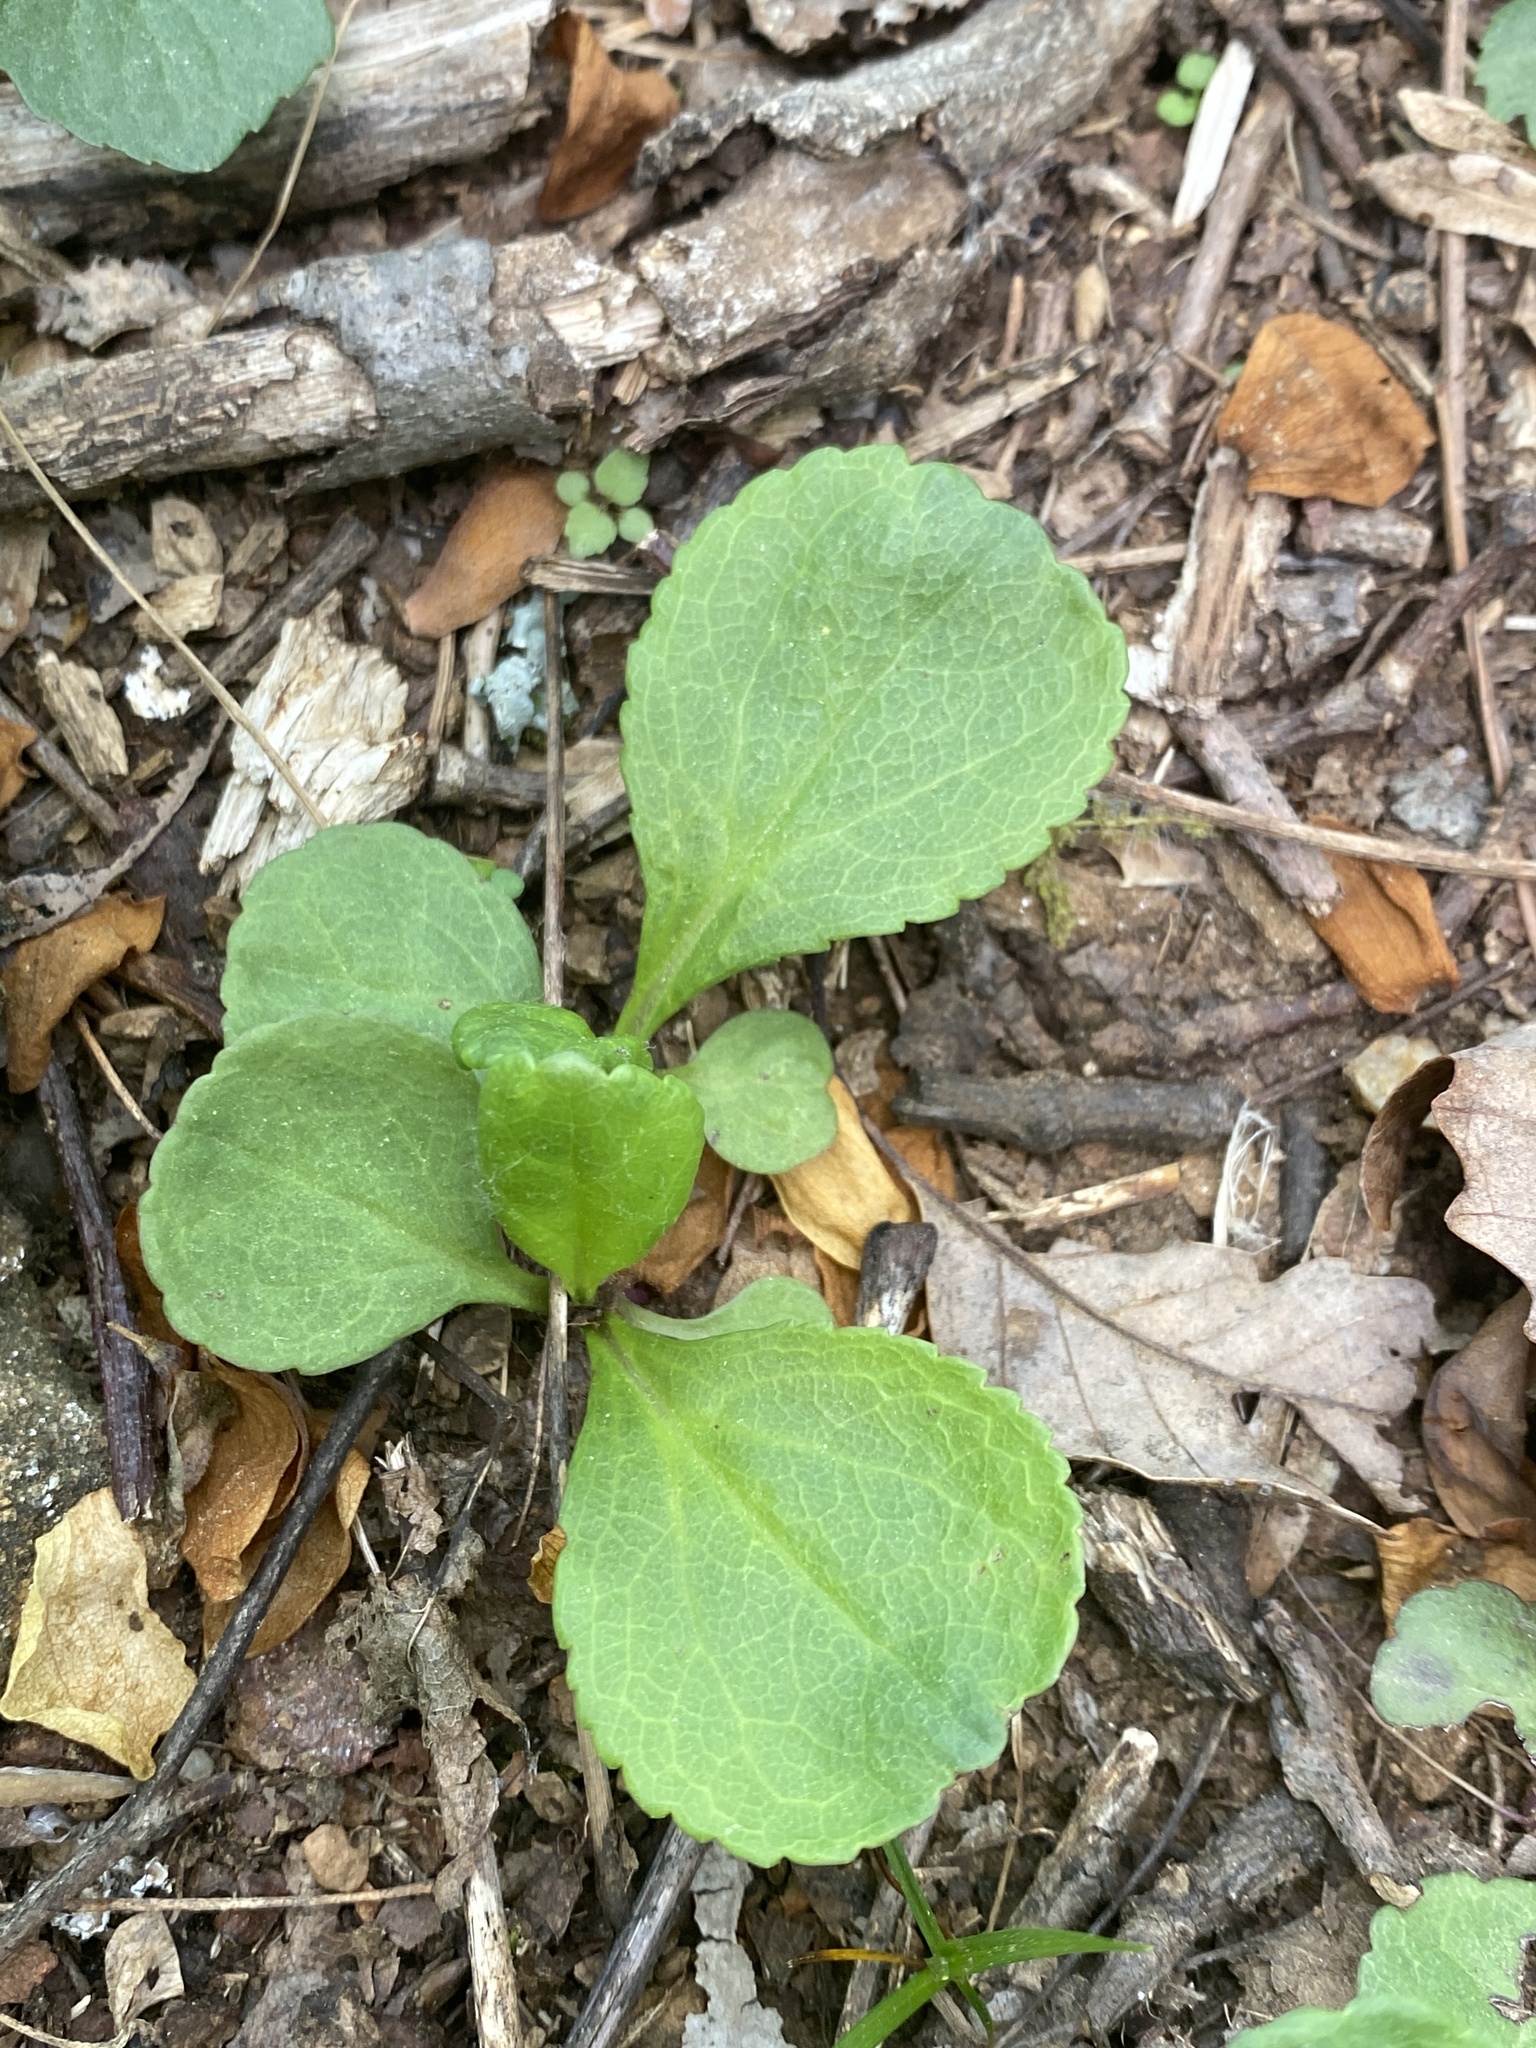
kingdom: Plantae
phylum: Tracheophyta
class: Magnoliopsida
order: Asterales
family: Asteraceae
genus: Packera
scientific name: Packera obovata
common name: Round-leaf ragwort
